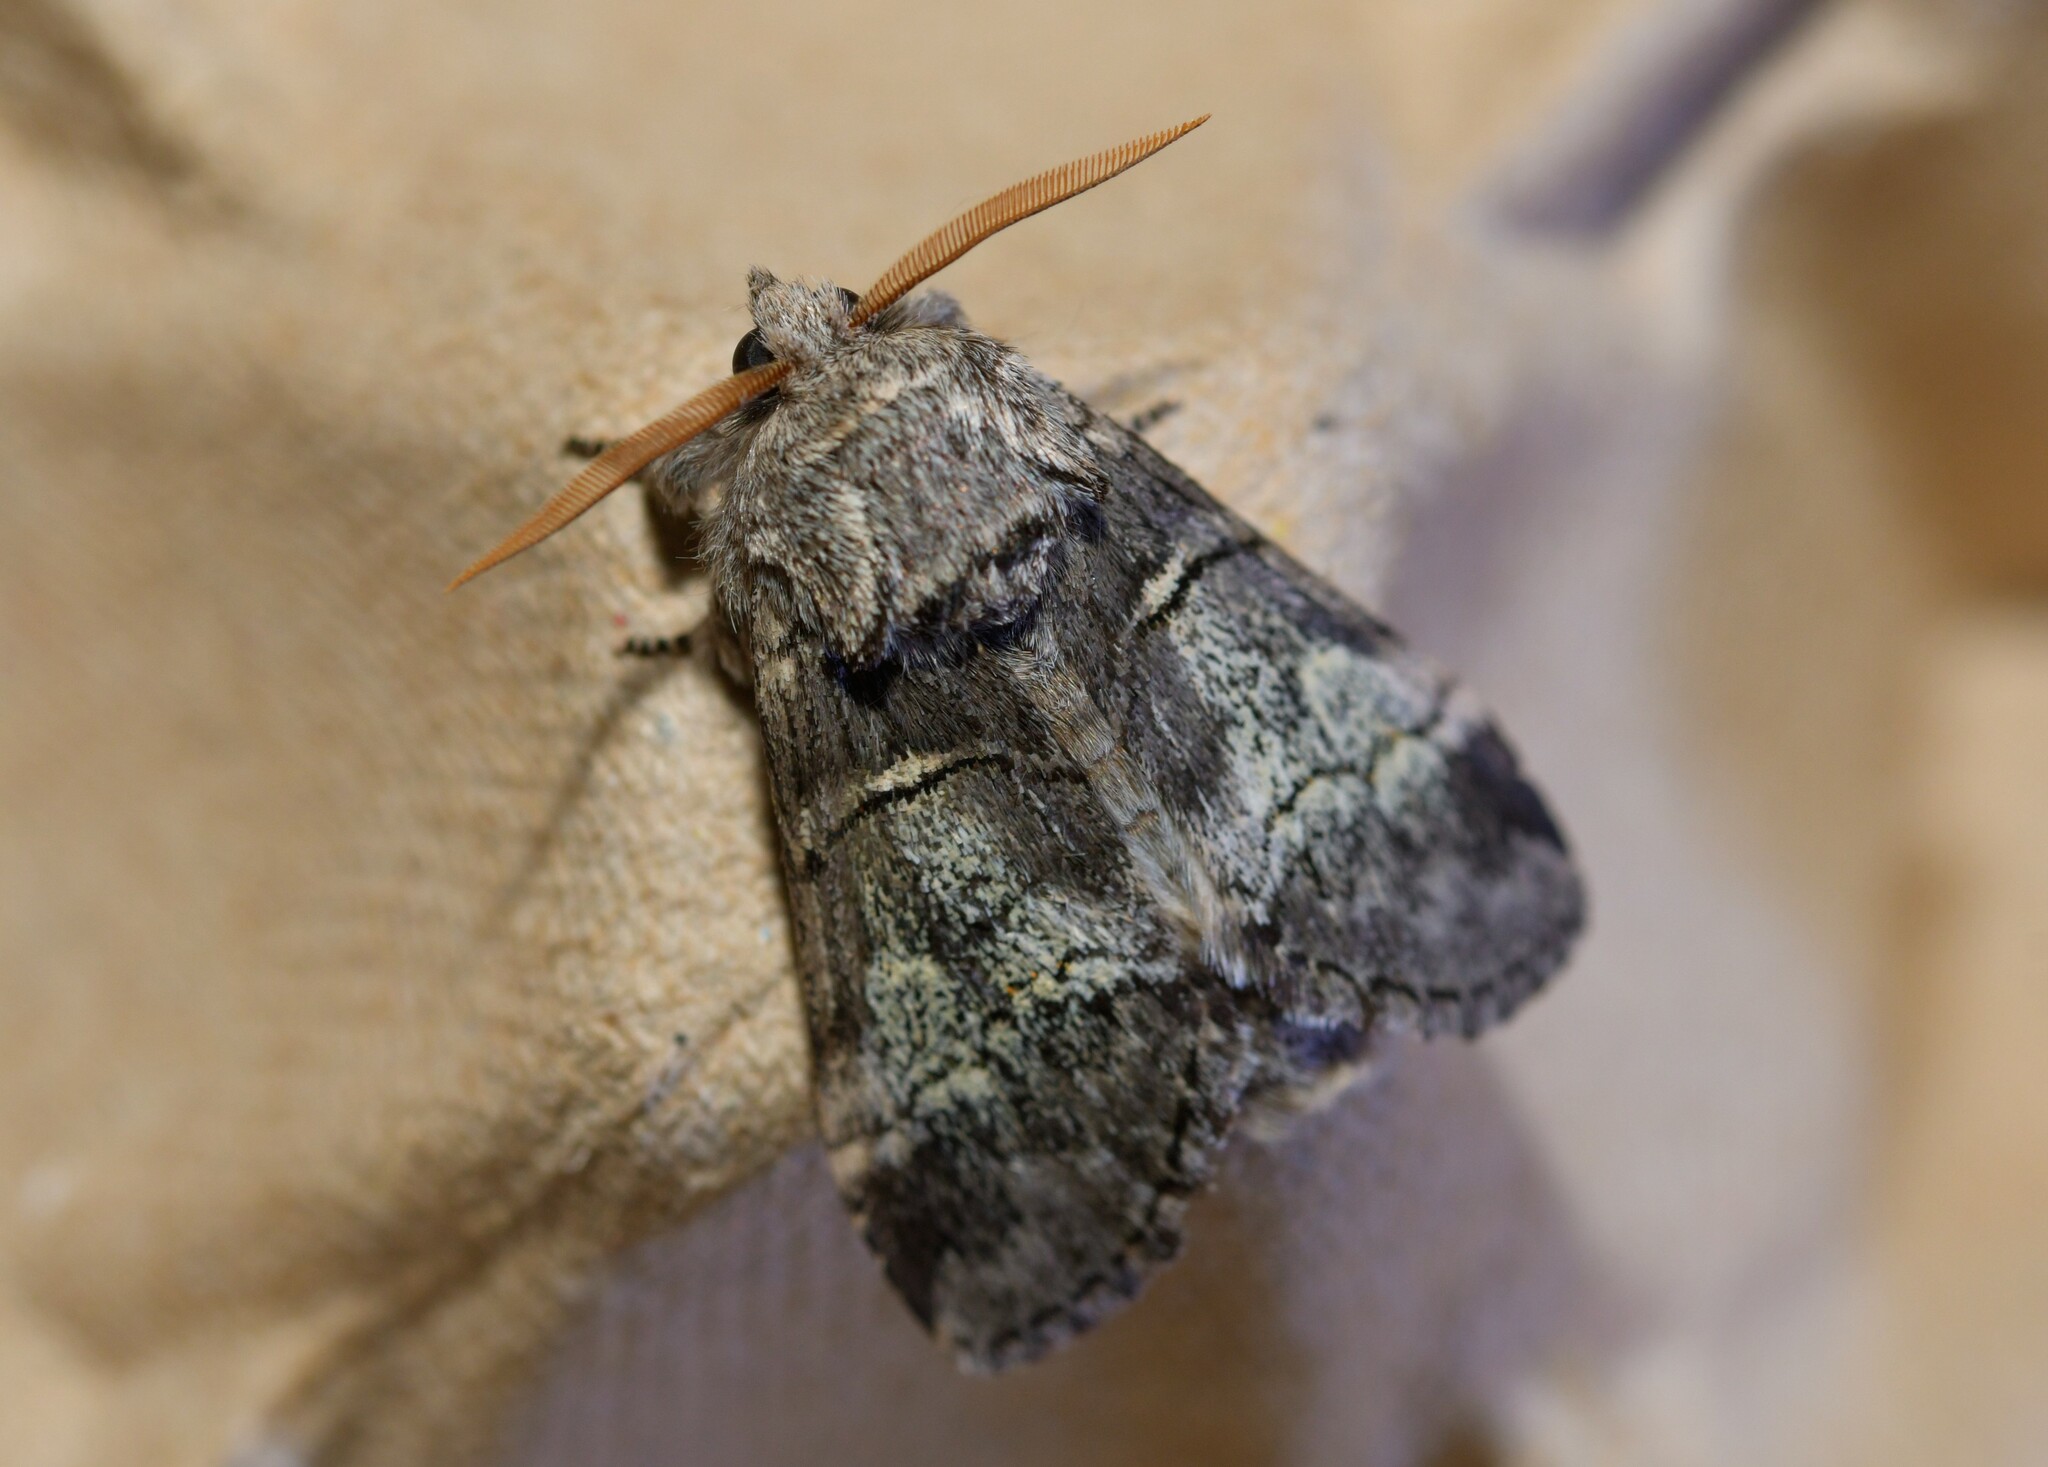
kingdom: Animalia
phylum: Arthropoda
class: Insecta
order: Lepidoptera
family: Notodontidae
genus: Drymonia
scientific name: Drymonia querna
